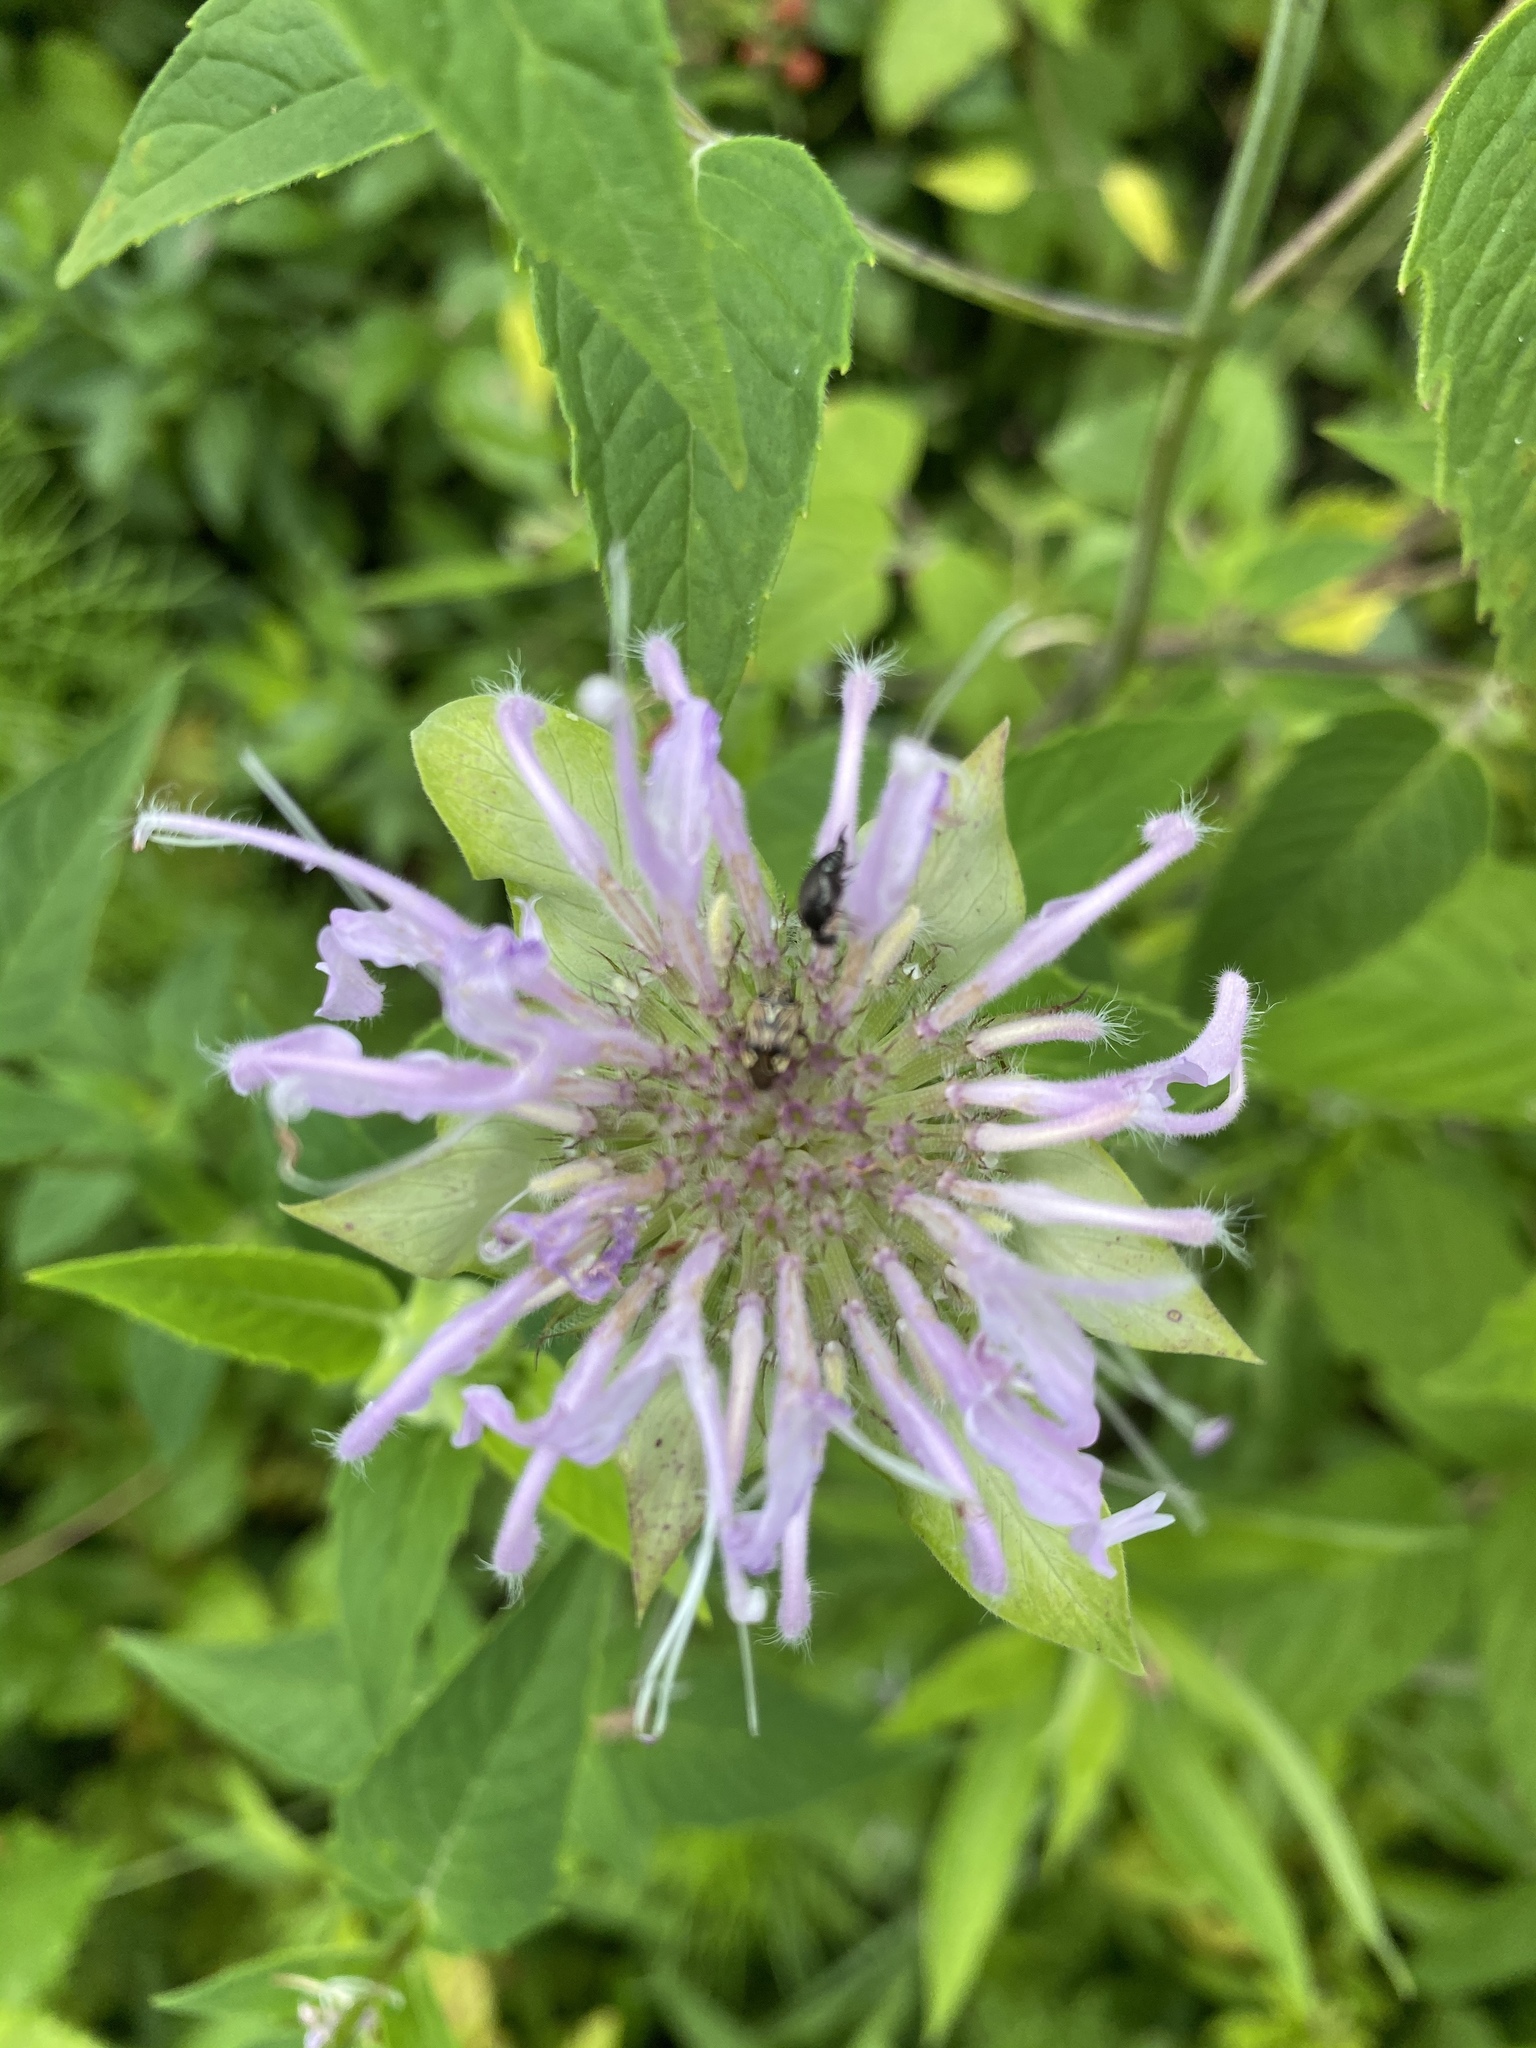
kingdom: Plantae
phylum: Tracheophyta
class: Magnoliopsida
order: Lamiales
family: Lamiaceae
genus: Monarda
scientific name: Monarda fistulosa
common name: Purple beebalm
